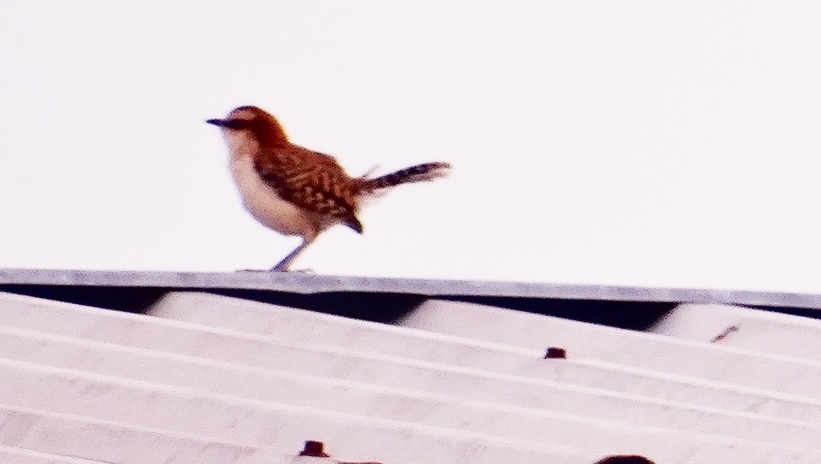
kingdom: Animalia
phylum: Chordata
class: Aves
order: Passeriformes
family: Troglodytidae
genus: Campylorhynchus
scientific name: Campylorhynchus rufinucha
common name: Rufous-naped wren
